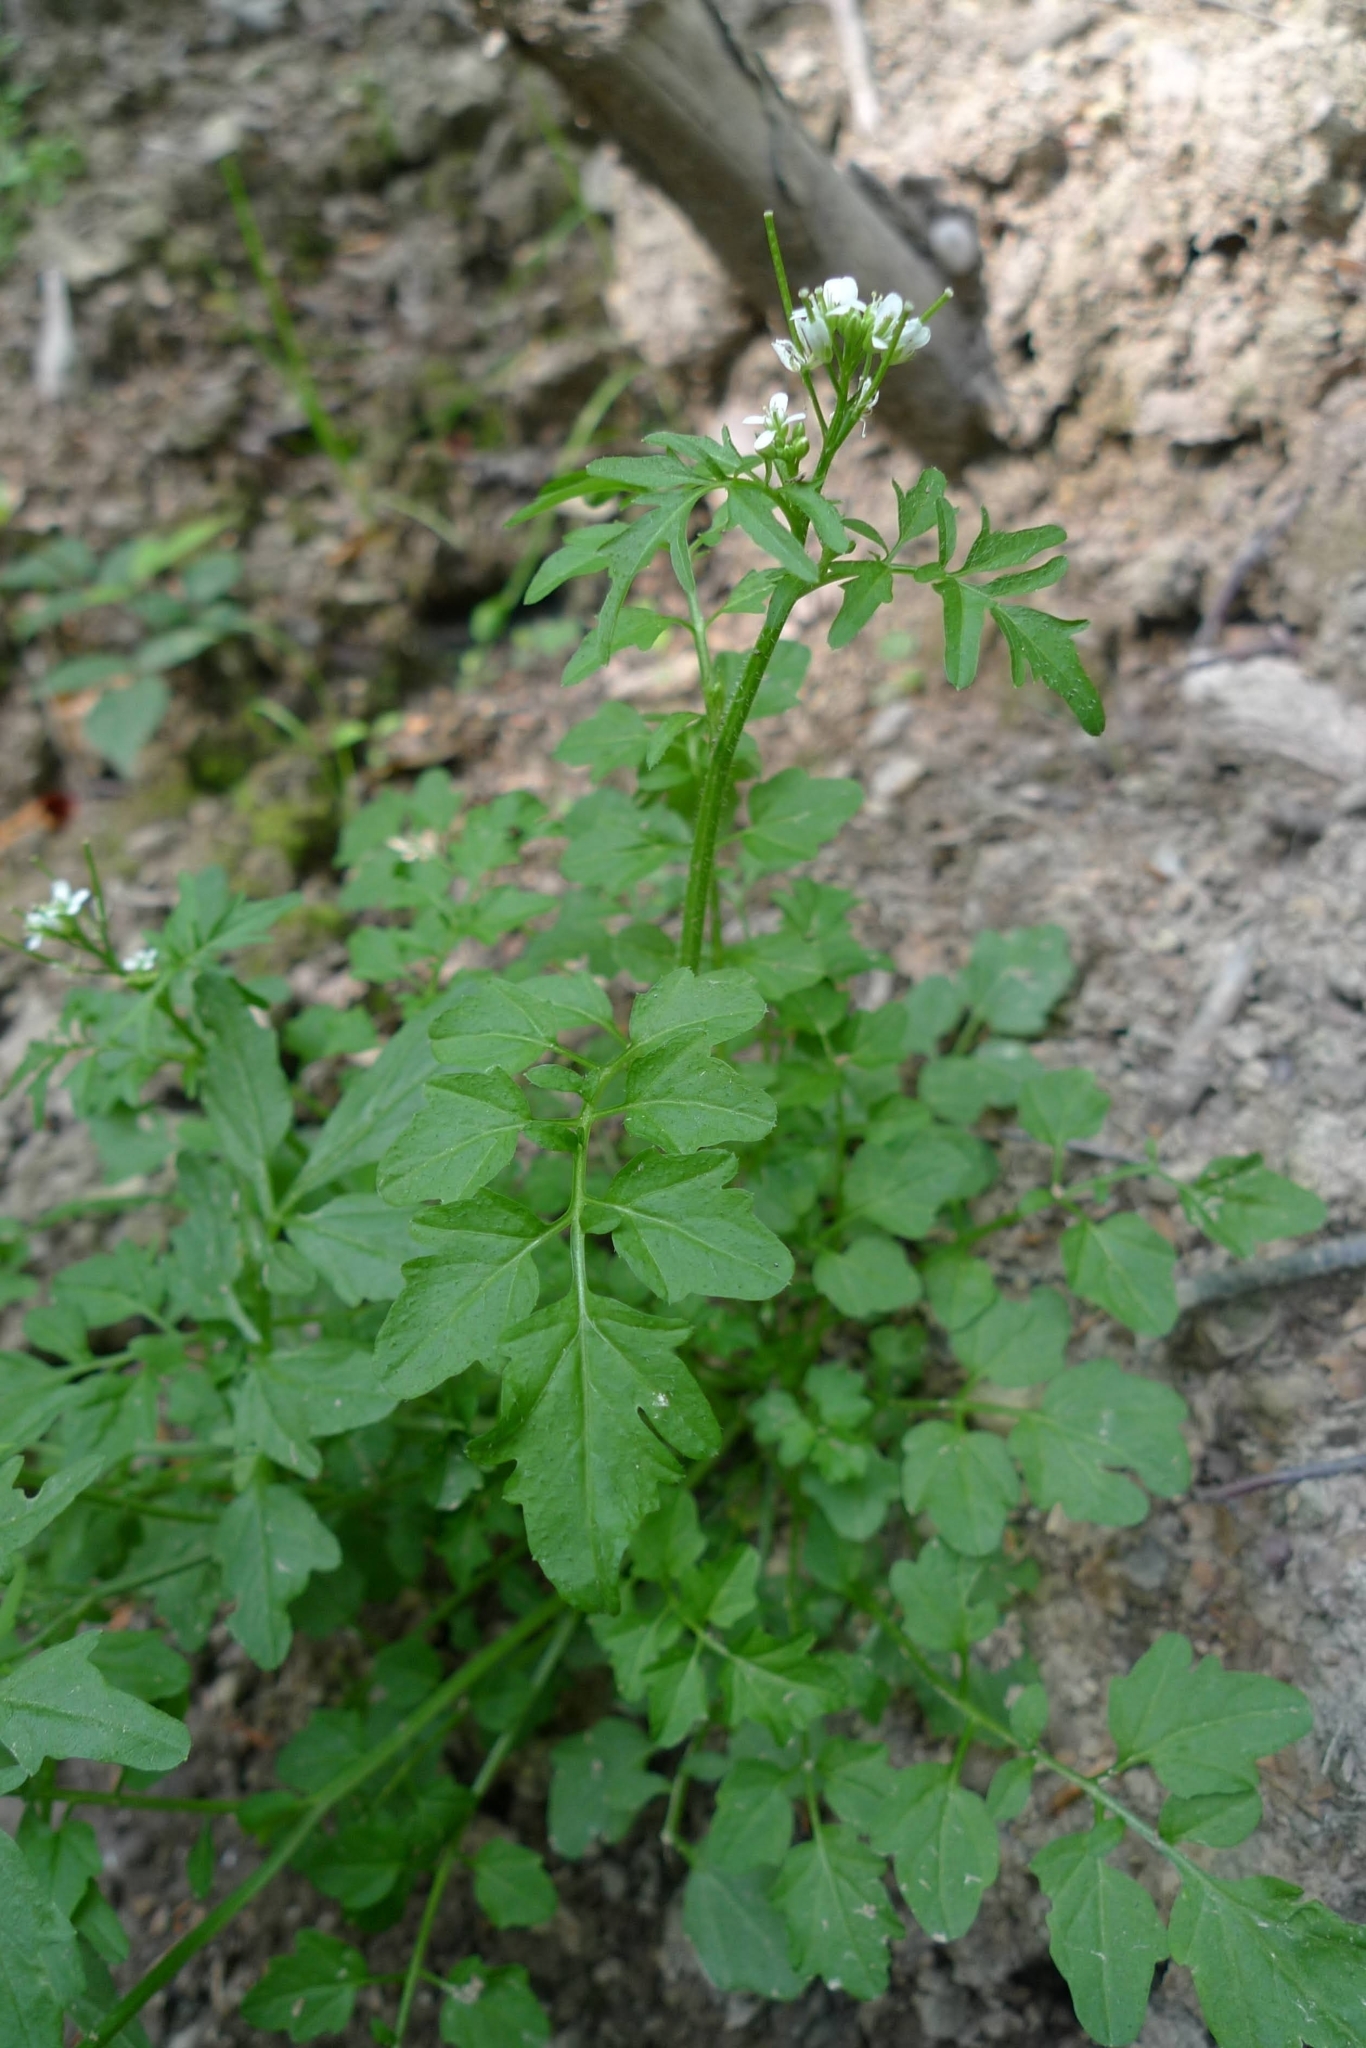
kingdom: Plantae
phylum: Tracheophyta
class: Magnoliopsida
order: Brassicales
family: Brassicaceae
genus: Cardamine
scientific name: Cardamine flexuosa
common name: Woodland bittercress
